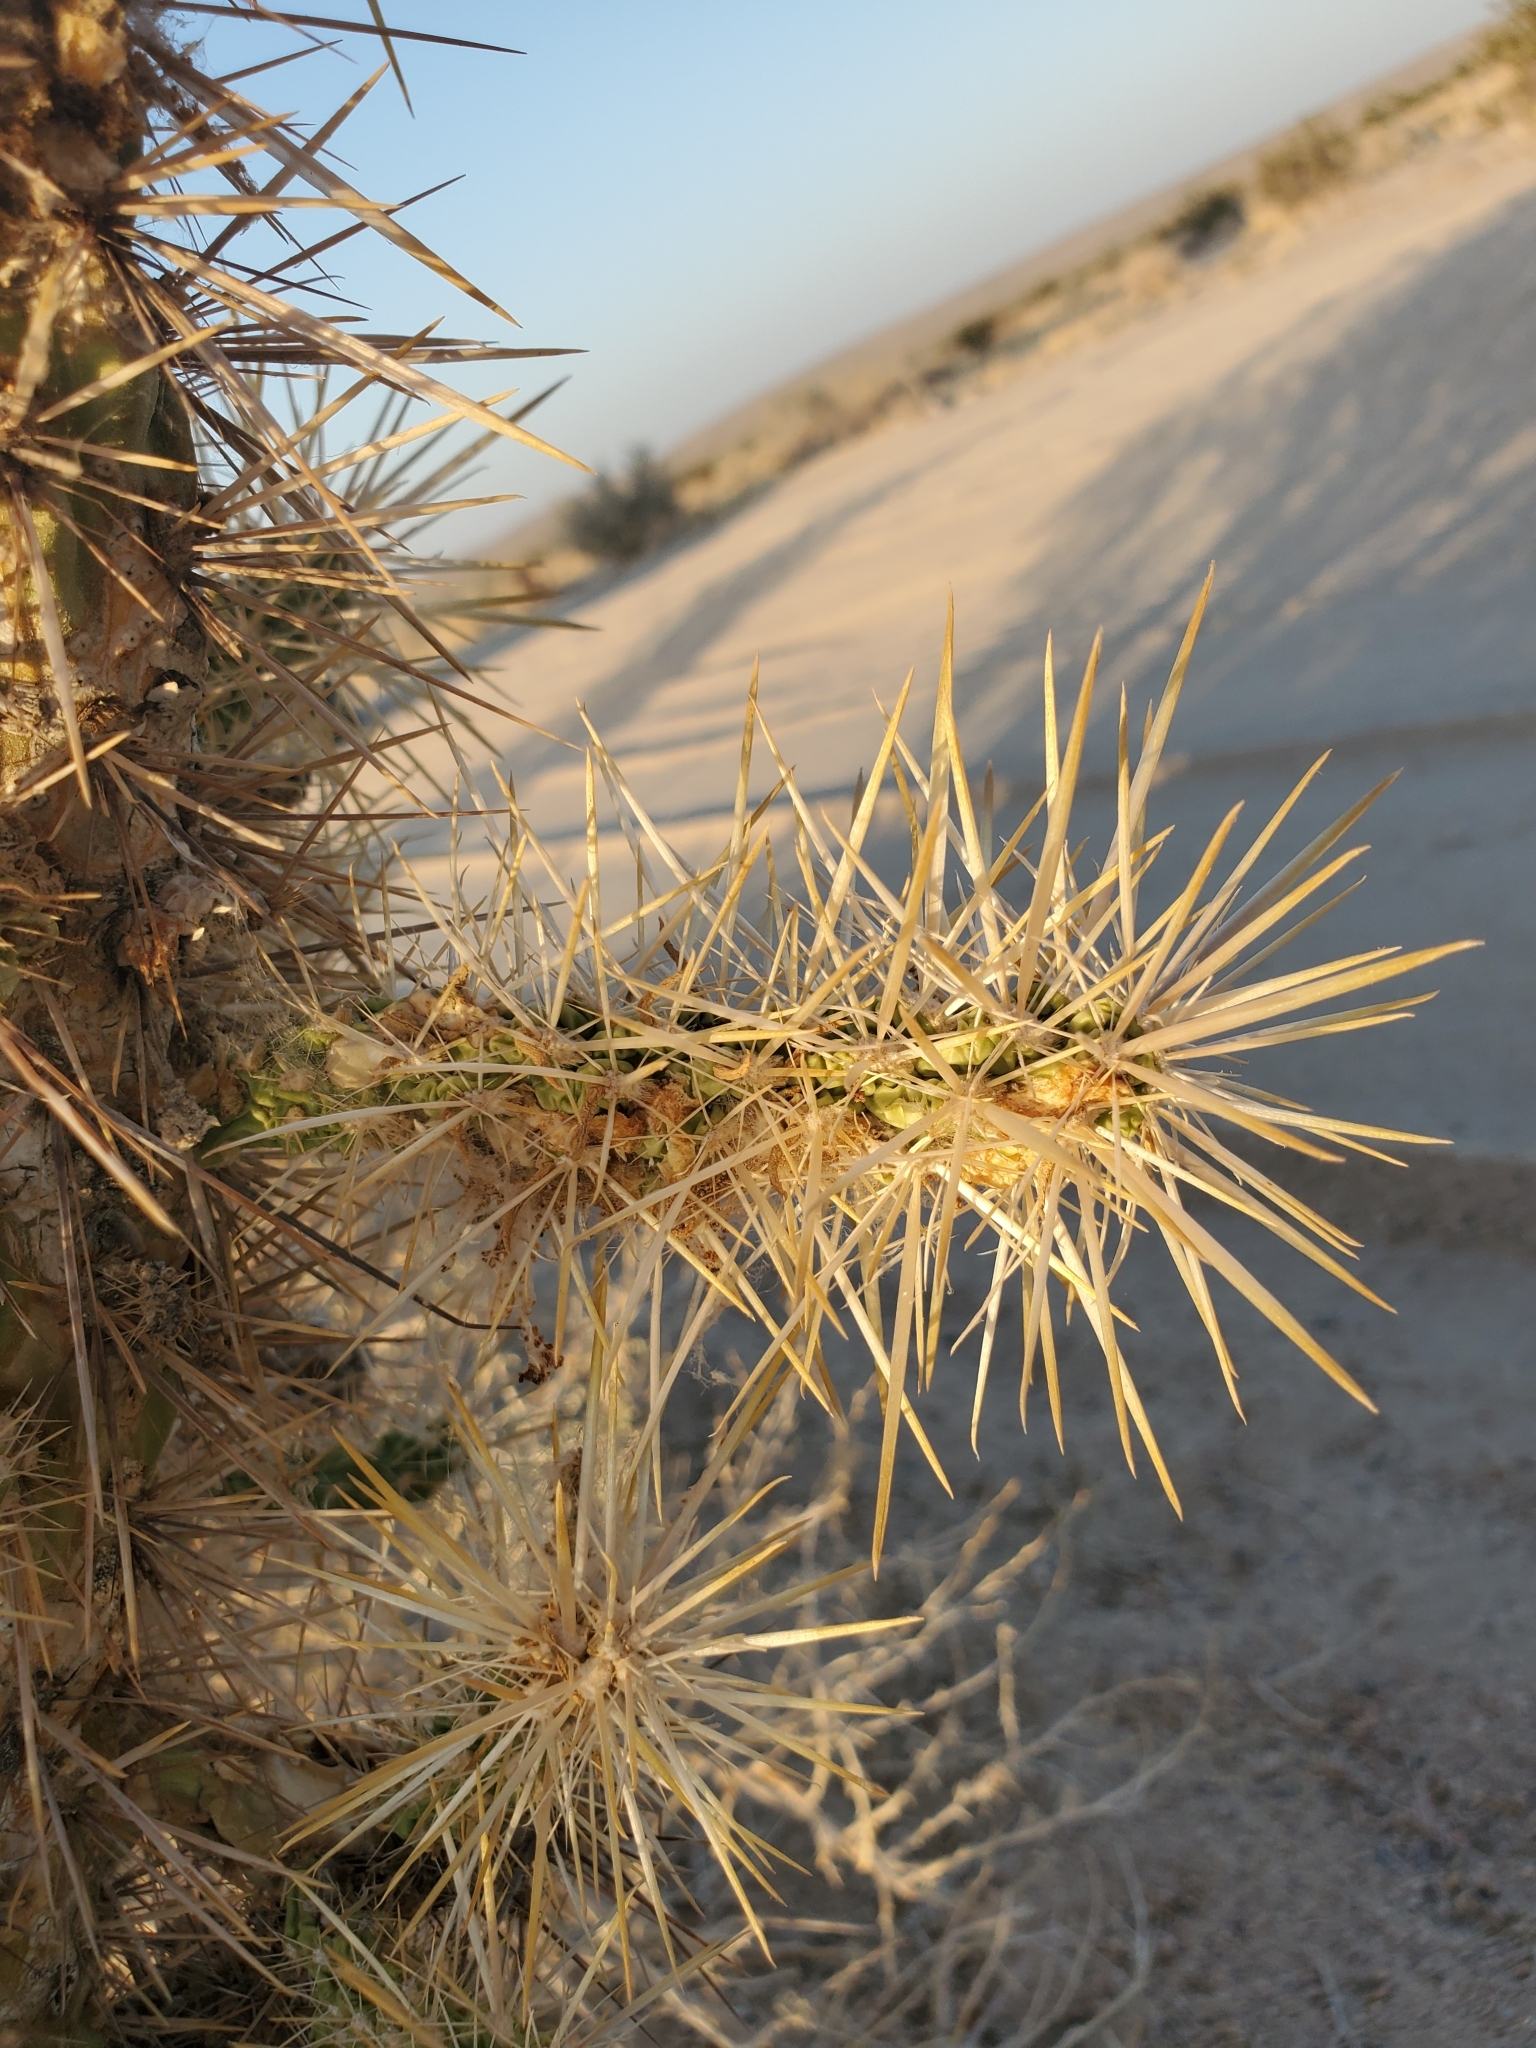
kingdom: Plantae
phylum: Tracheophyta
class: Magnoliopsida
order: Caryophyllales
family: Cactaceae
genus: Cylindropuntia
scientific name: Cylindropuntia echinocarpa
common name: Ground cholla
